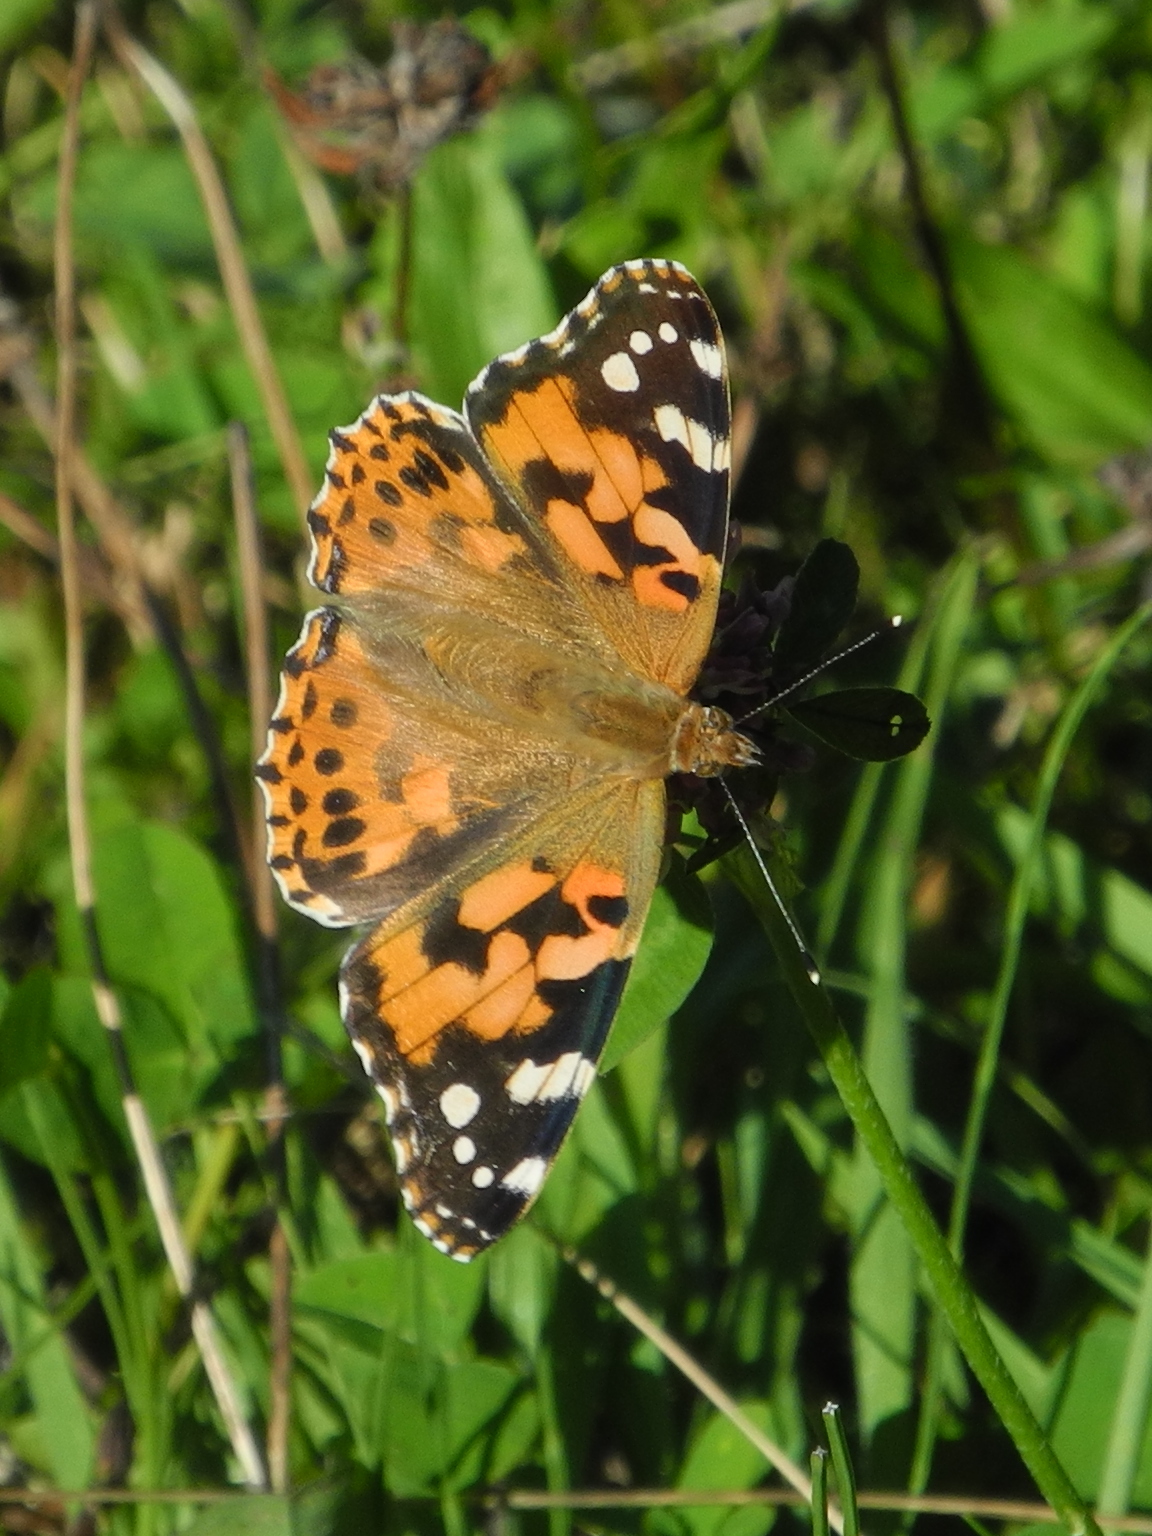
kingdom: Animalia
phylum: Arthropoda
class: Insecta
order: Lepidoptera
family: Nymphalidae
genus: Vanessa
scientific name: Vanessa cardui
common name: Painted lady
